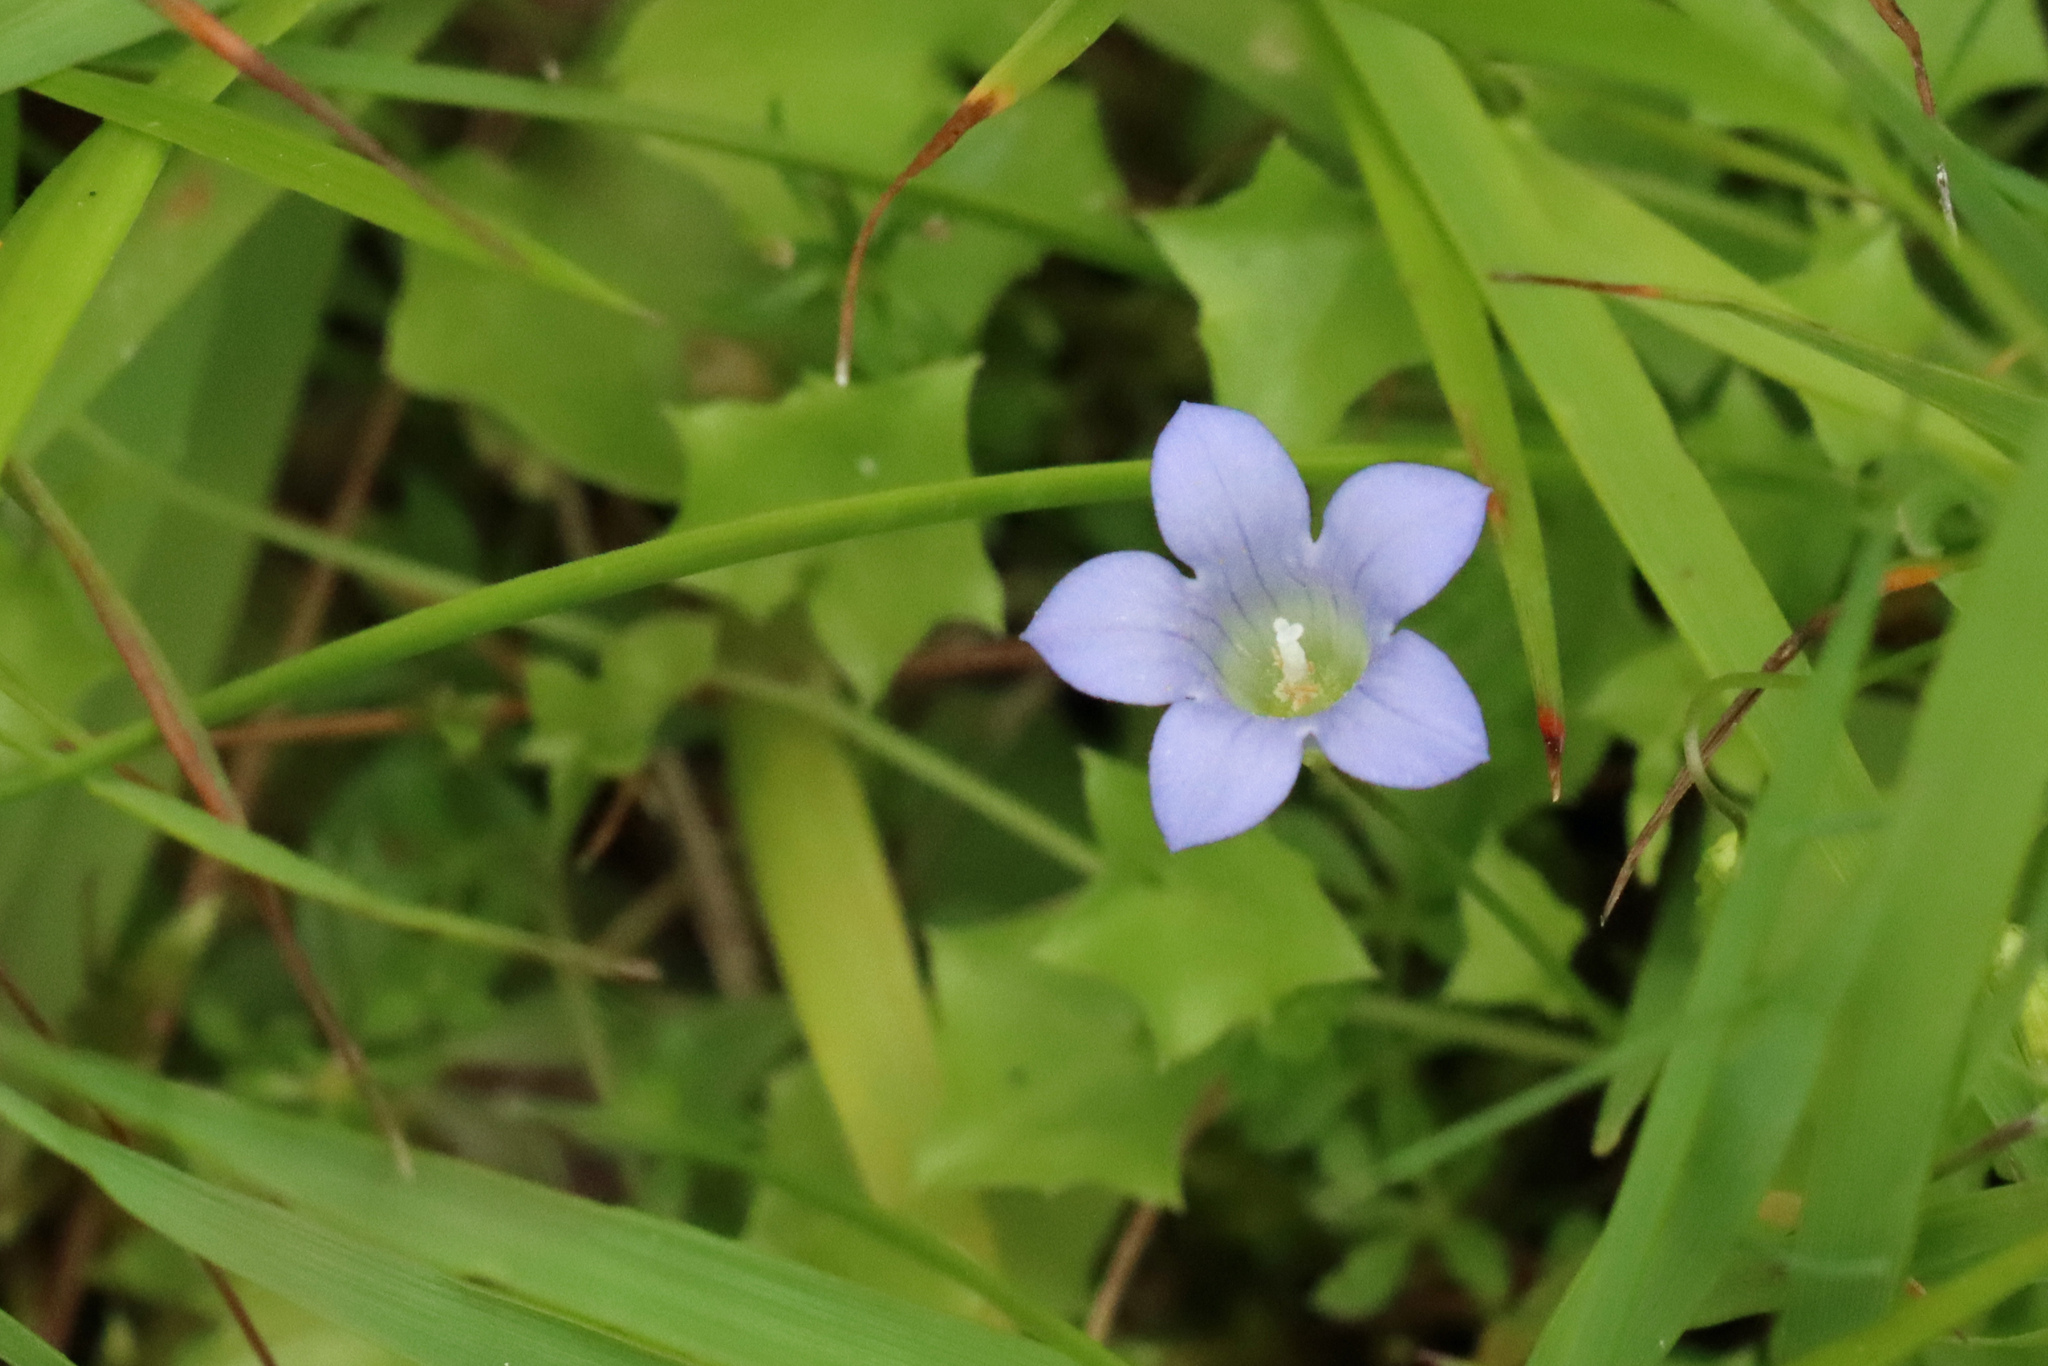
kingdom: Plantae
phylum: Tracheophyta
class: Magnoliopsida
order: Asterales
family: Campanulaceae
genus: Hesperocodon
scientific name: Hesperocodon hederaceus
